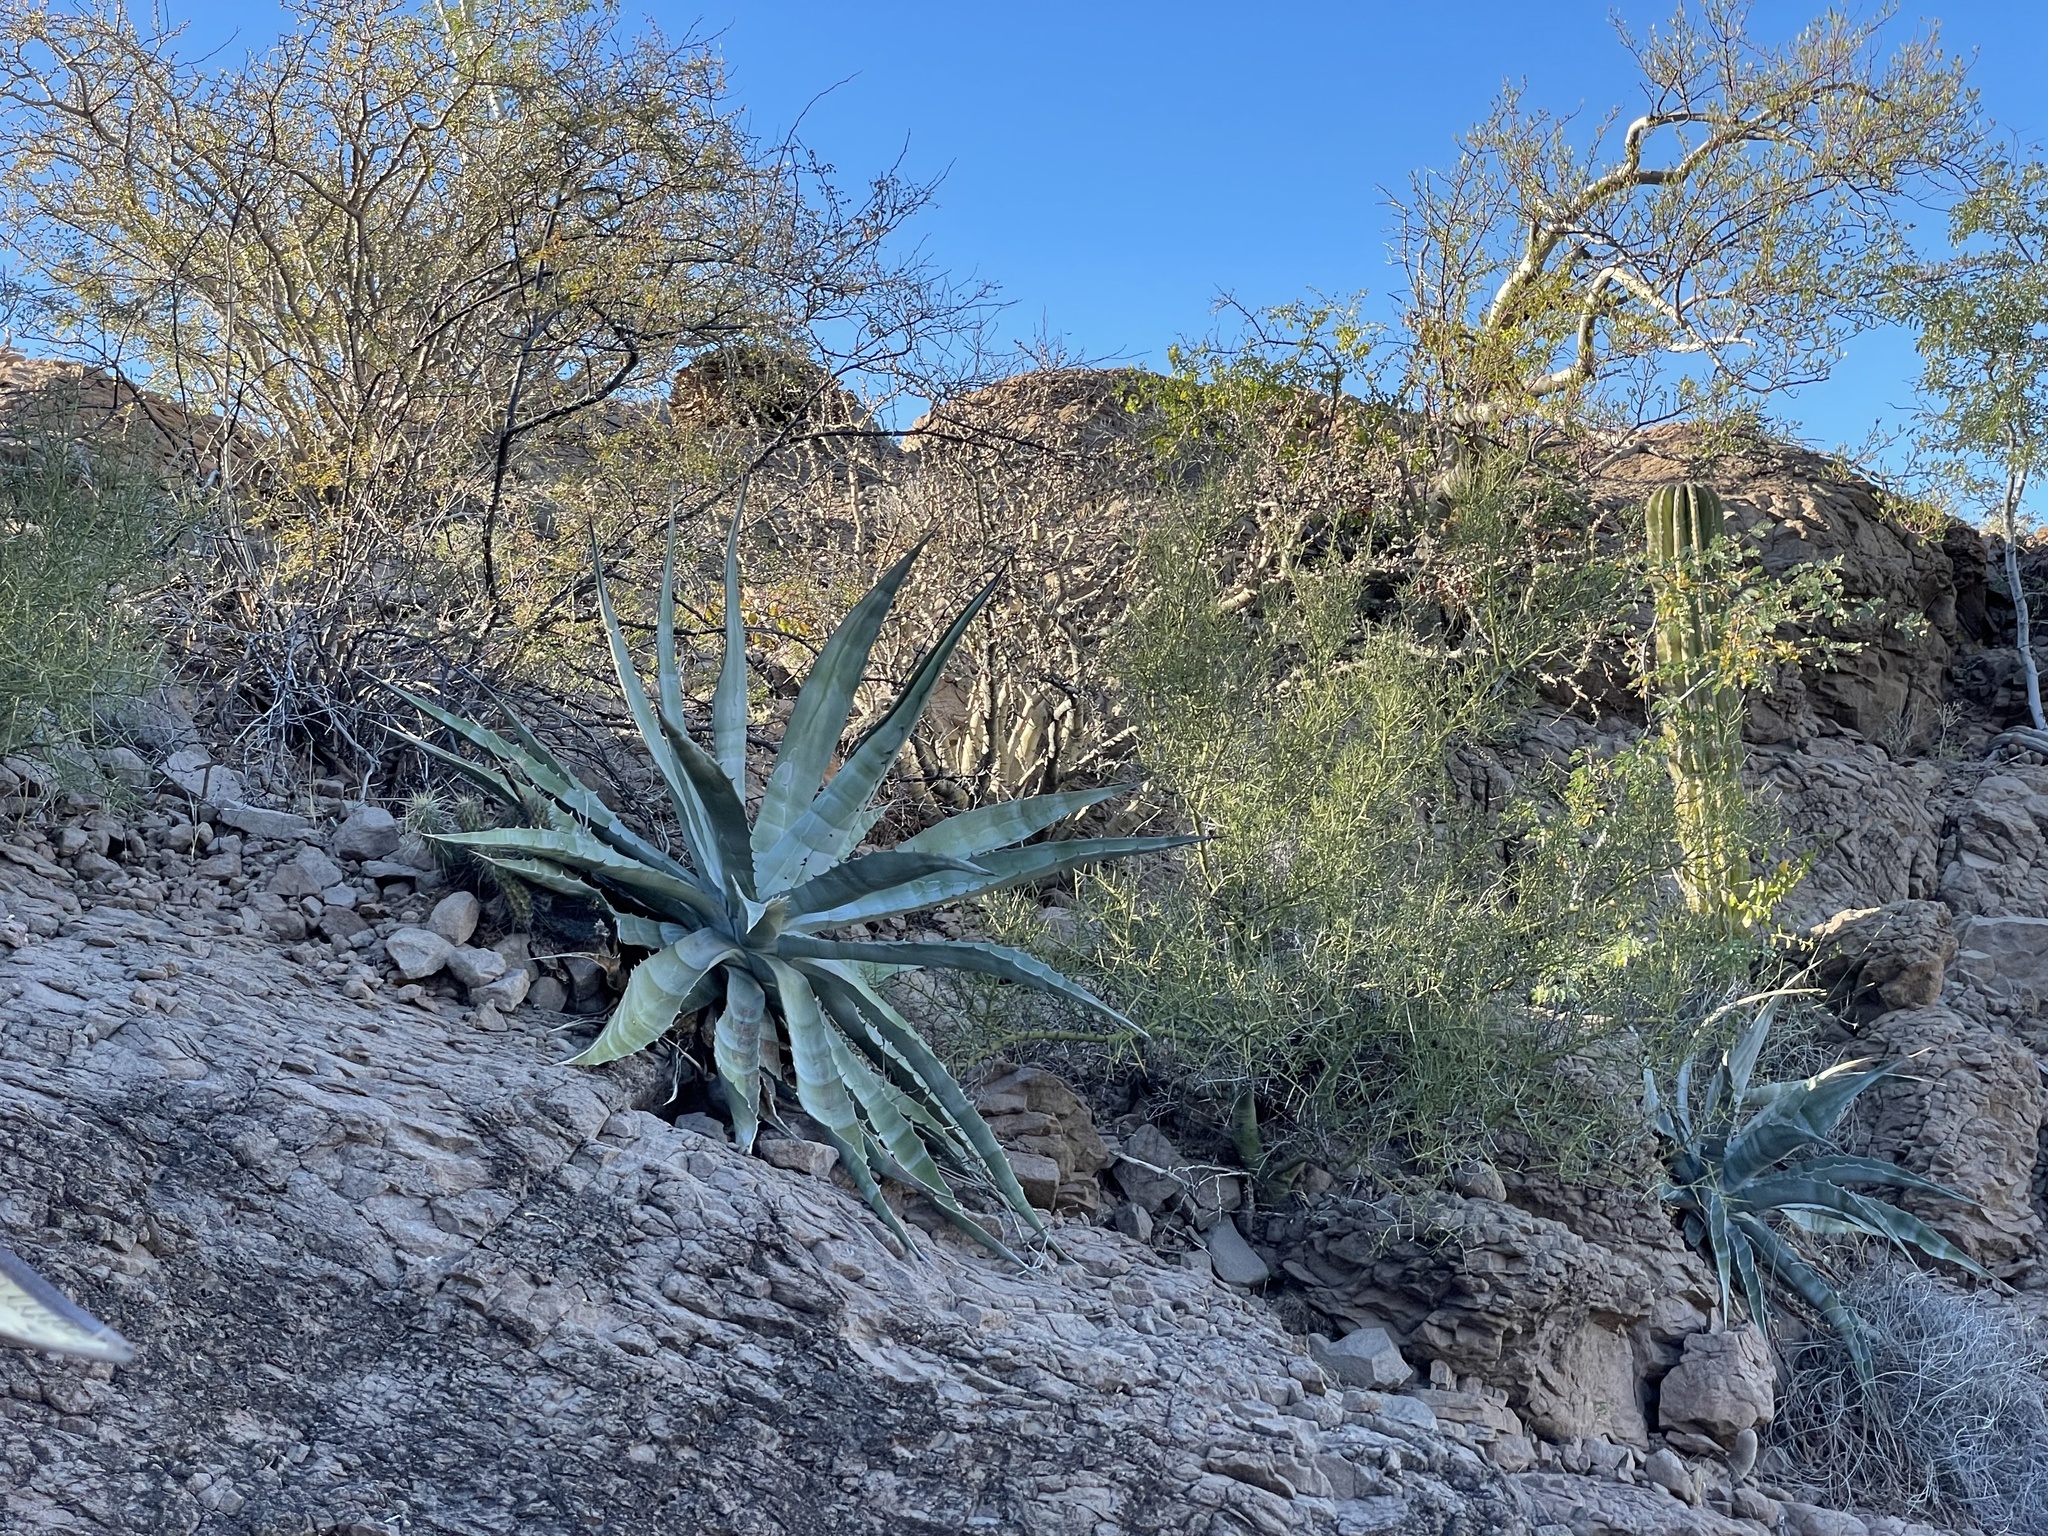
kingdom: Plantae
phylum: Tracheophyta
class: Liliopsida
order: Asparagales
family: Asparagaceae
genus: Agave
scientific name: Agave sobria
